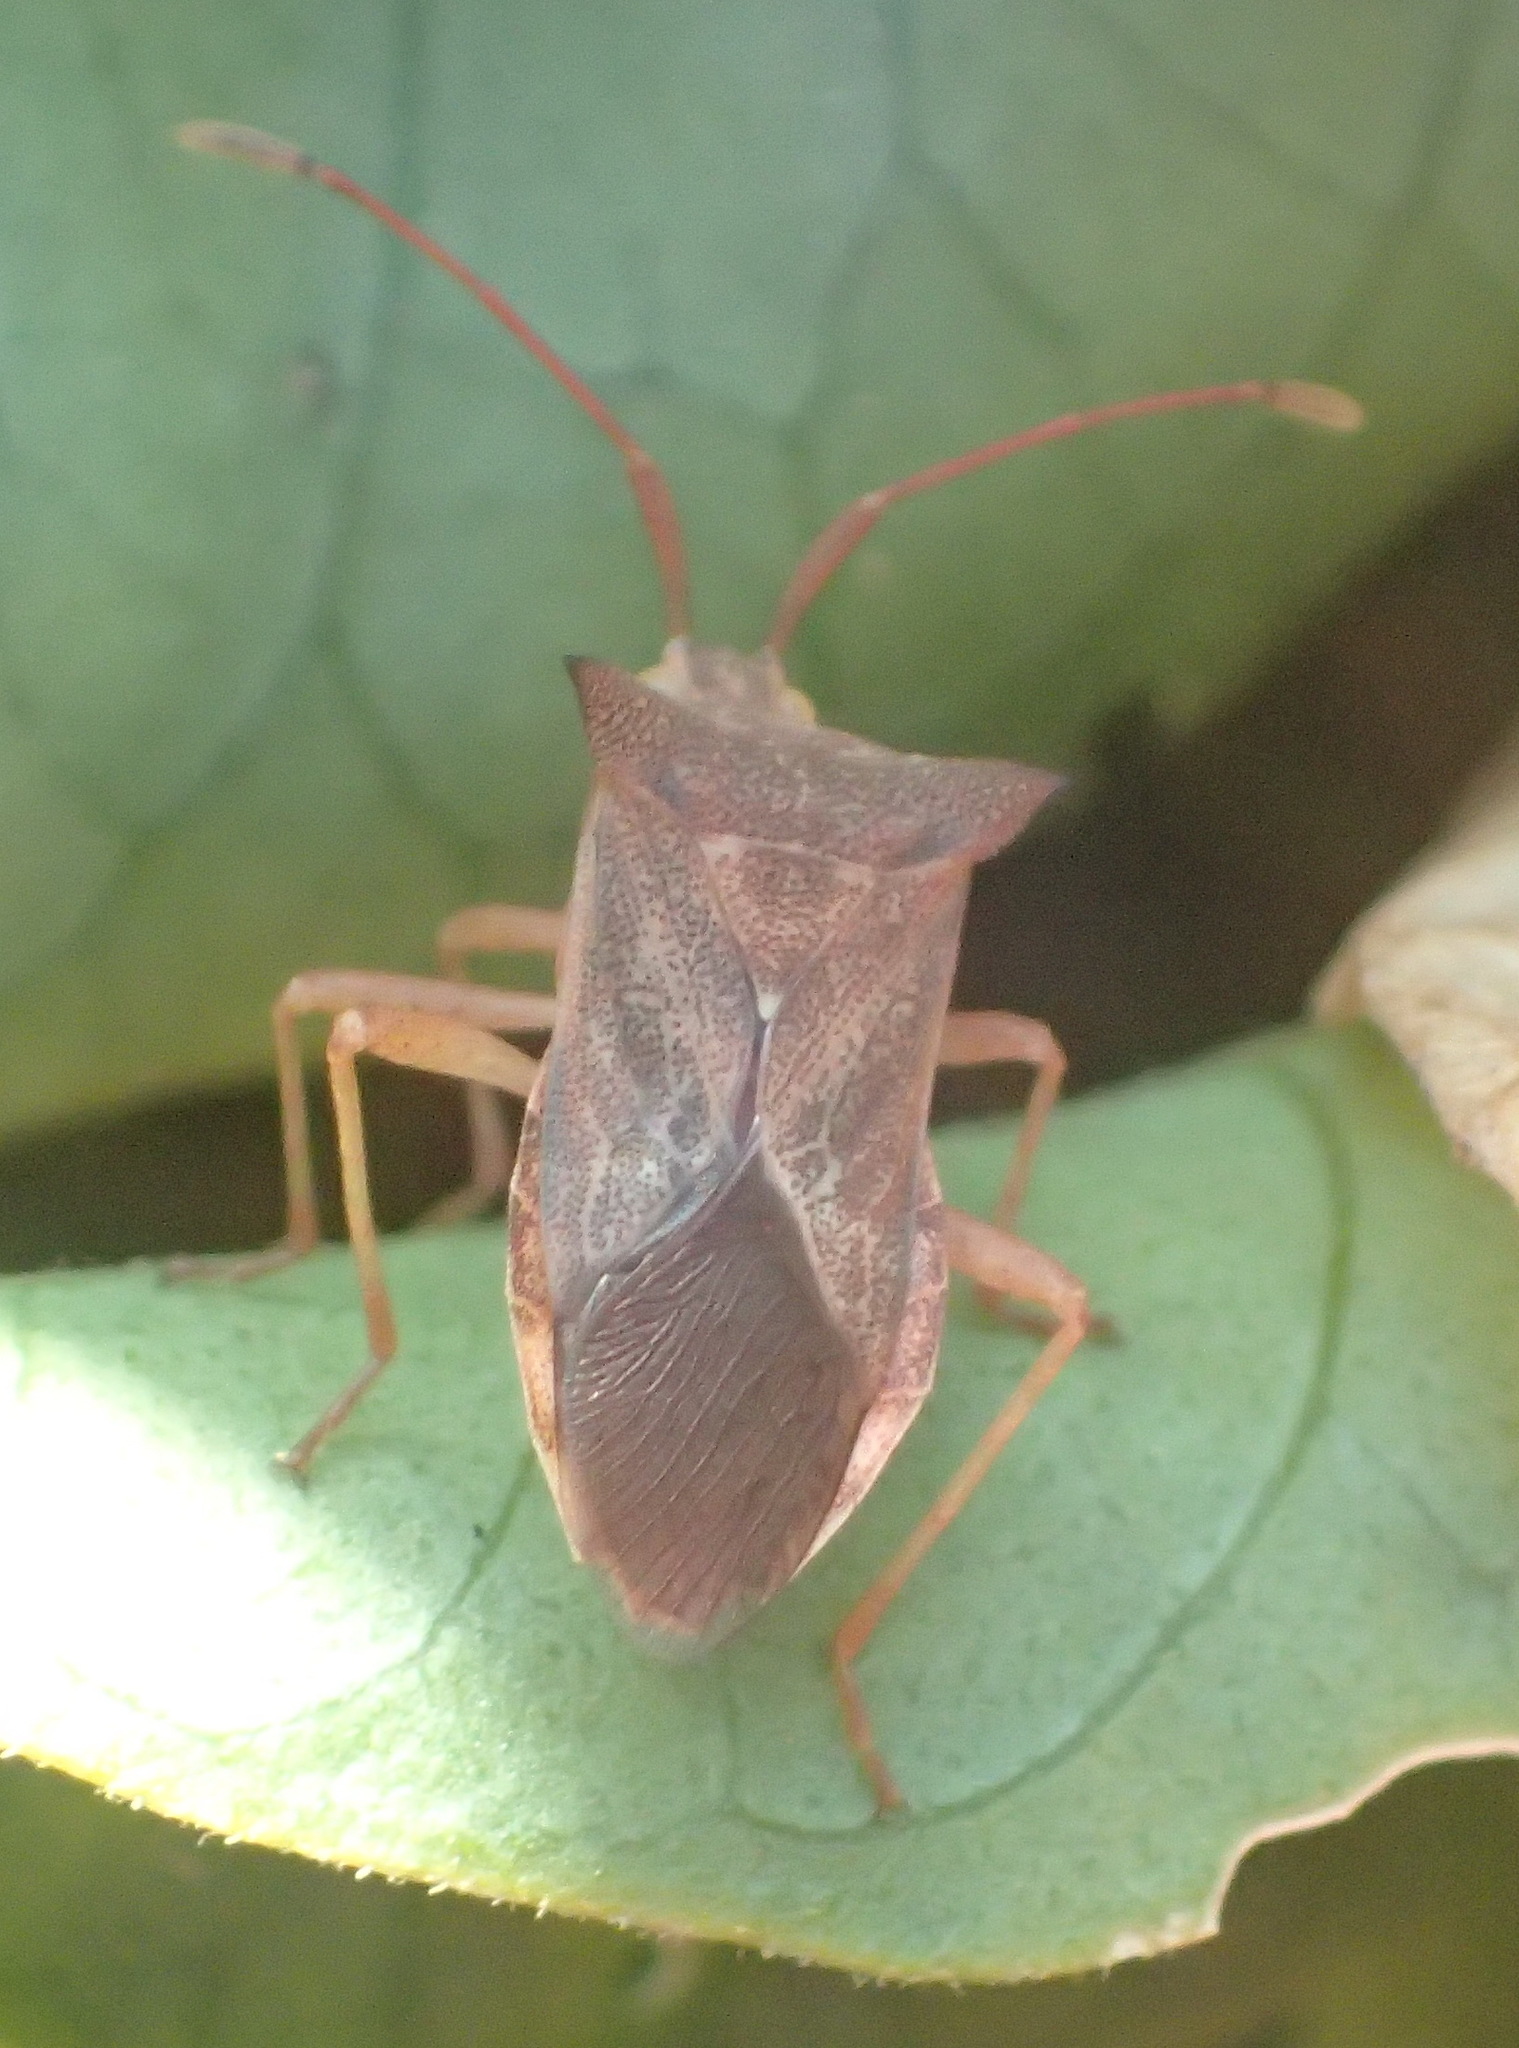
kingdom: Animalia
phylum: Arthropoda
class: Insecta
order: Hemiptera
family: Coreidae
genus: Cletus
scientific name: Cletus ochraceus
